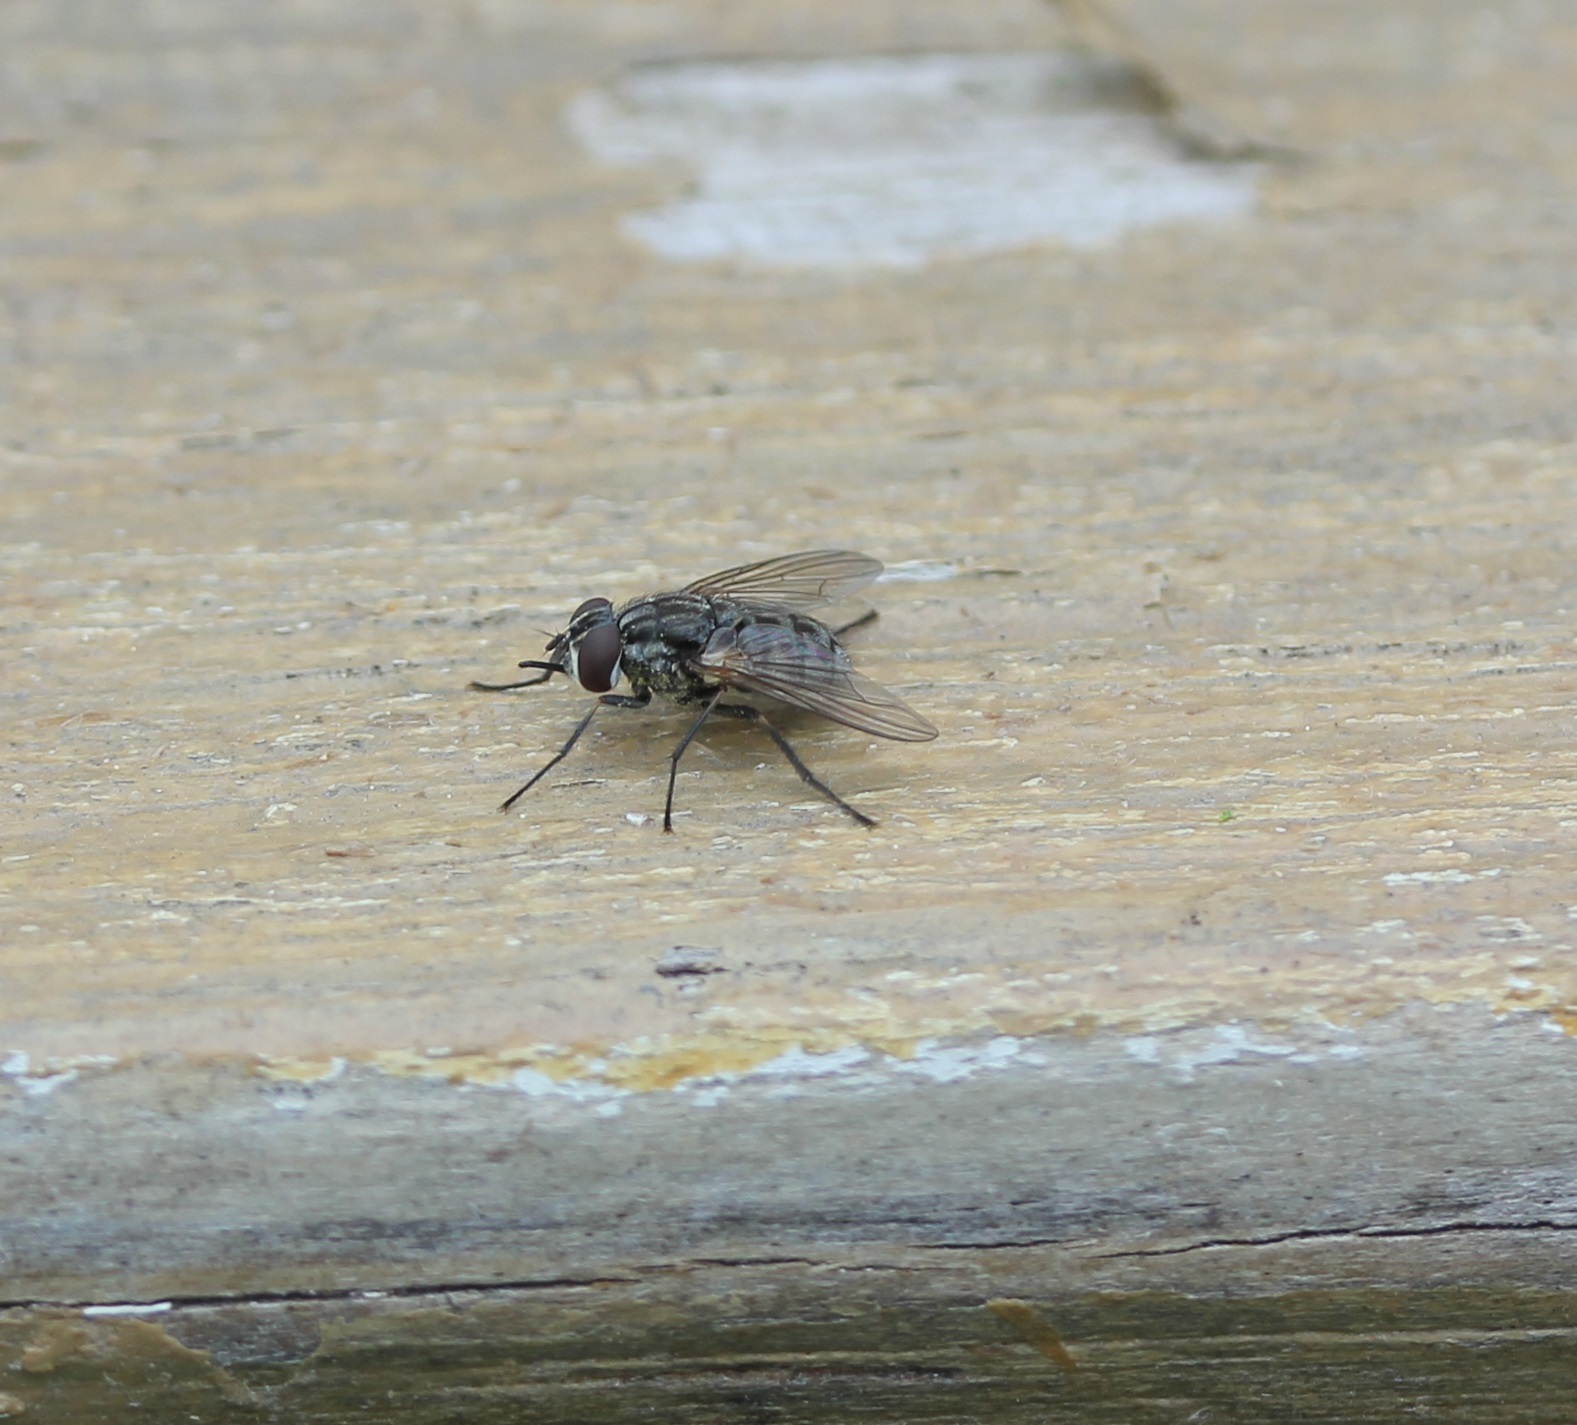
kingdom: Animalia
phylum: Arthropoda
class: Insecta
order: Diptera
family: Muscidae
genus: Stomoxys
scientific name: Stomoxys calcitrans
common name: Stable fly
